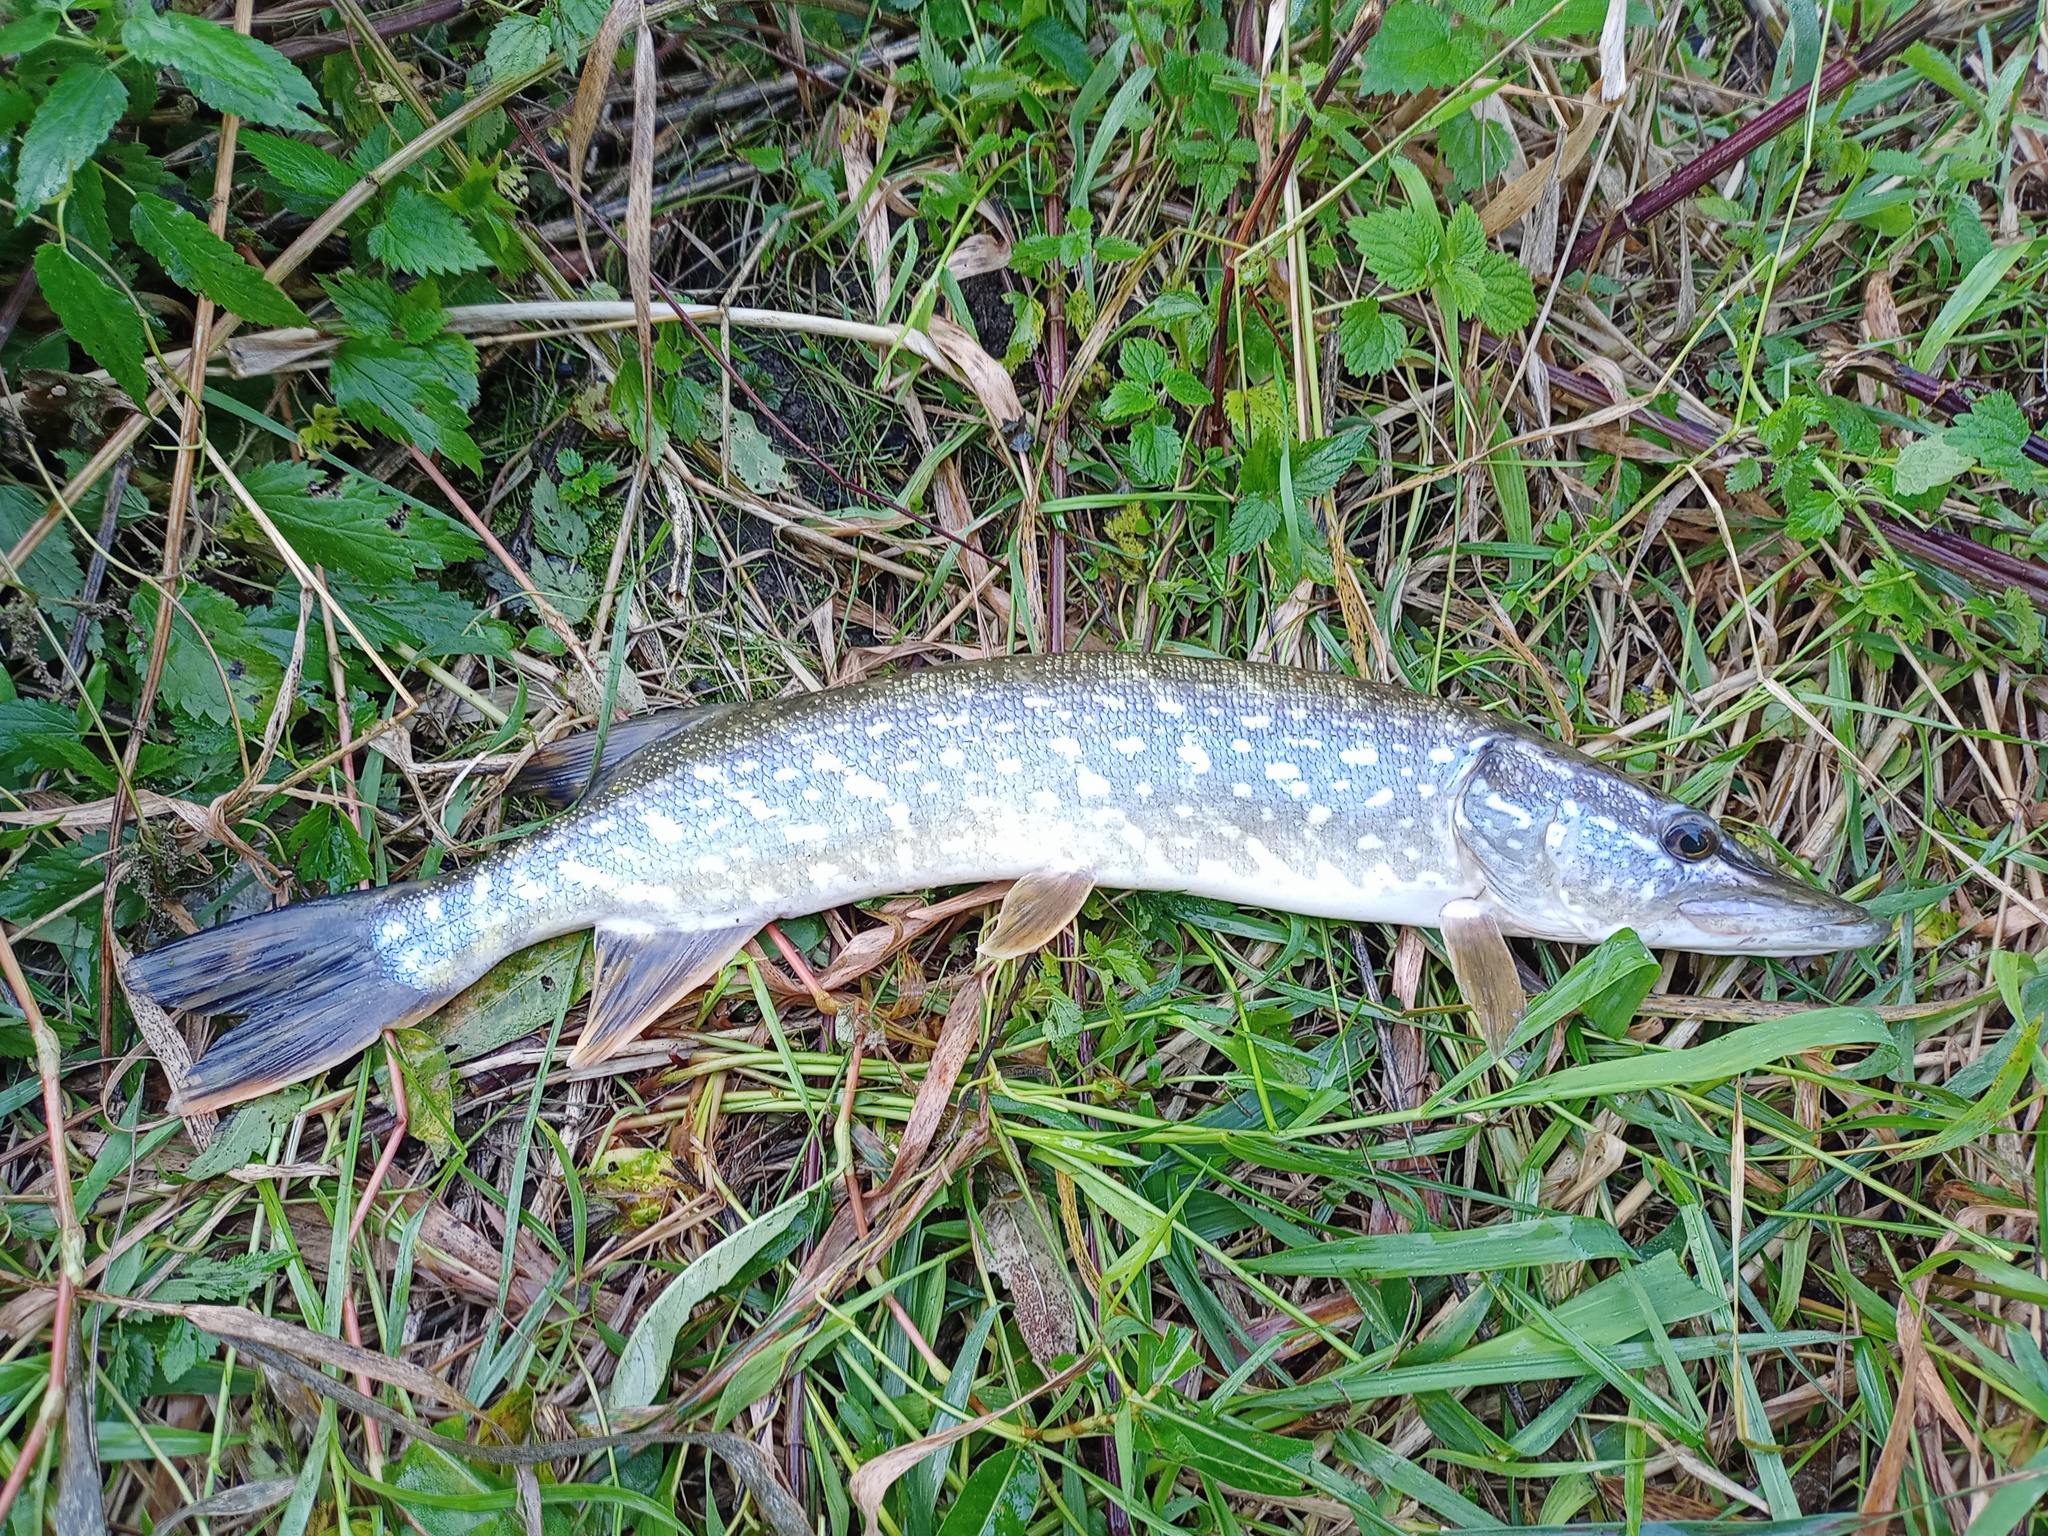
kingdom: Animalia
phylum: Chordata
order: Esociformes
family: Esocidae
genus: Esox
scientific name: Esox lucius
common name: Northern pike
